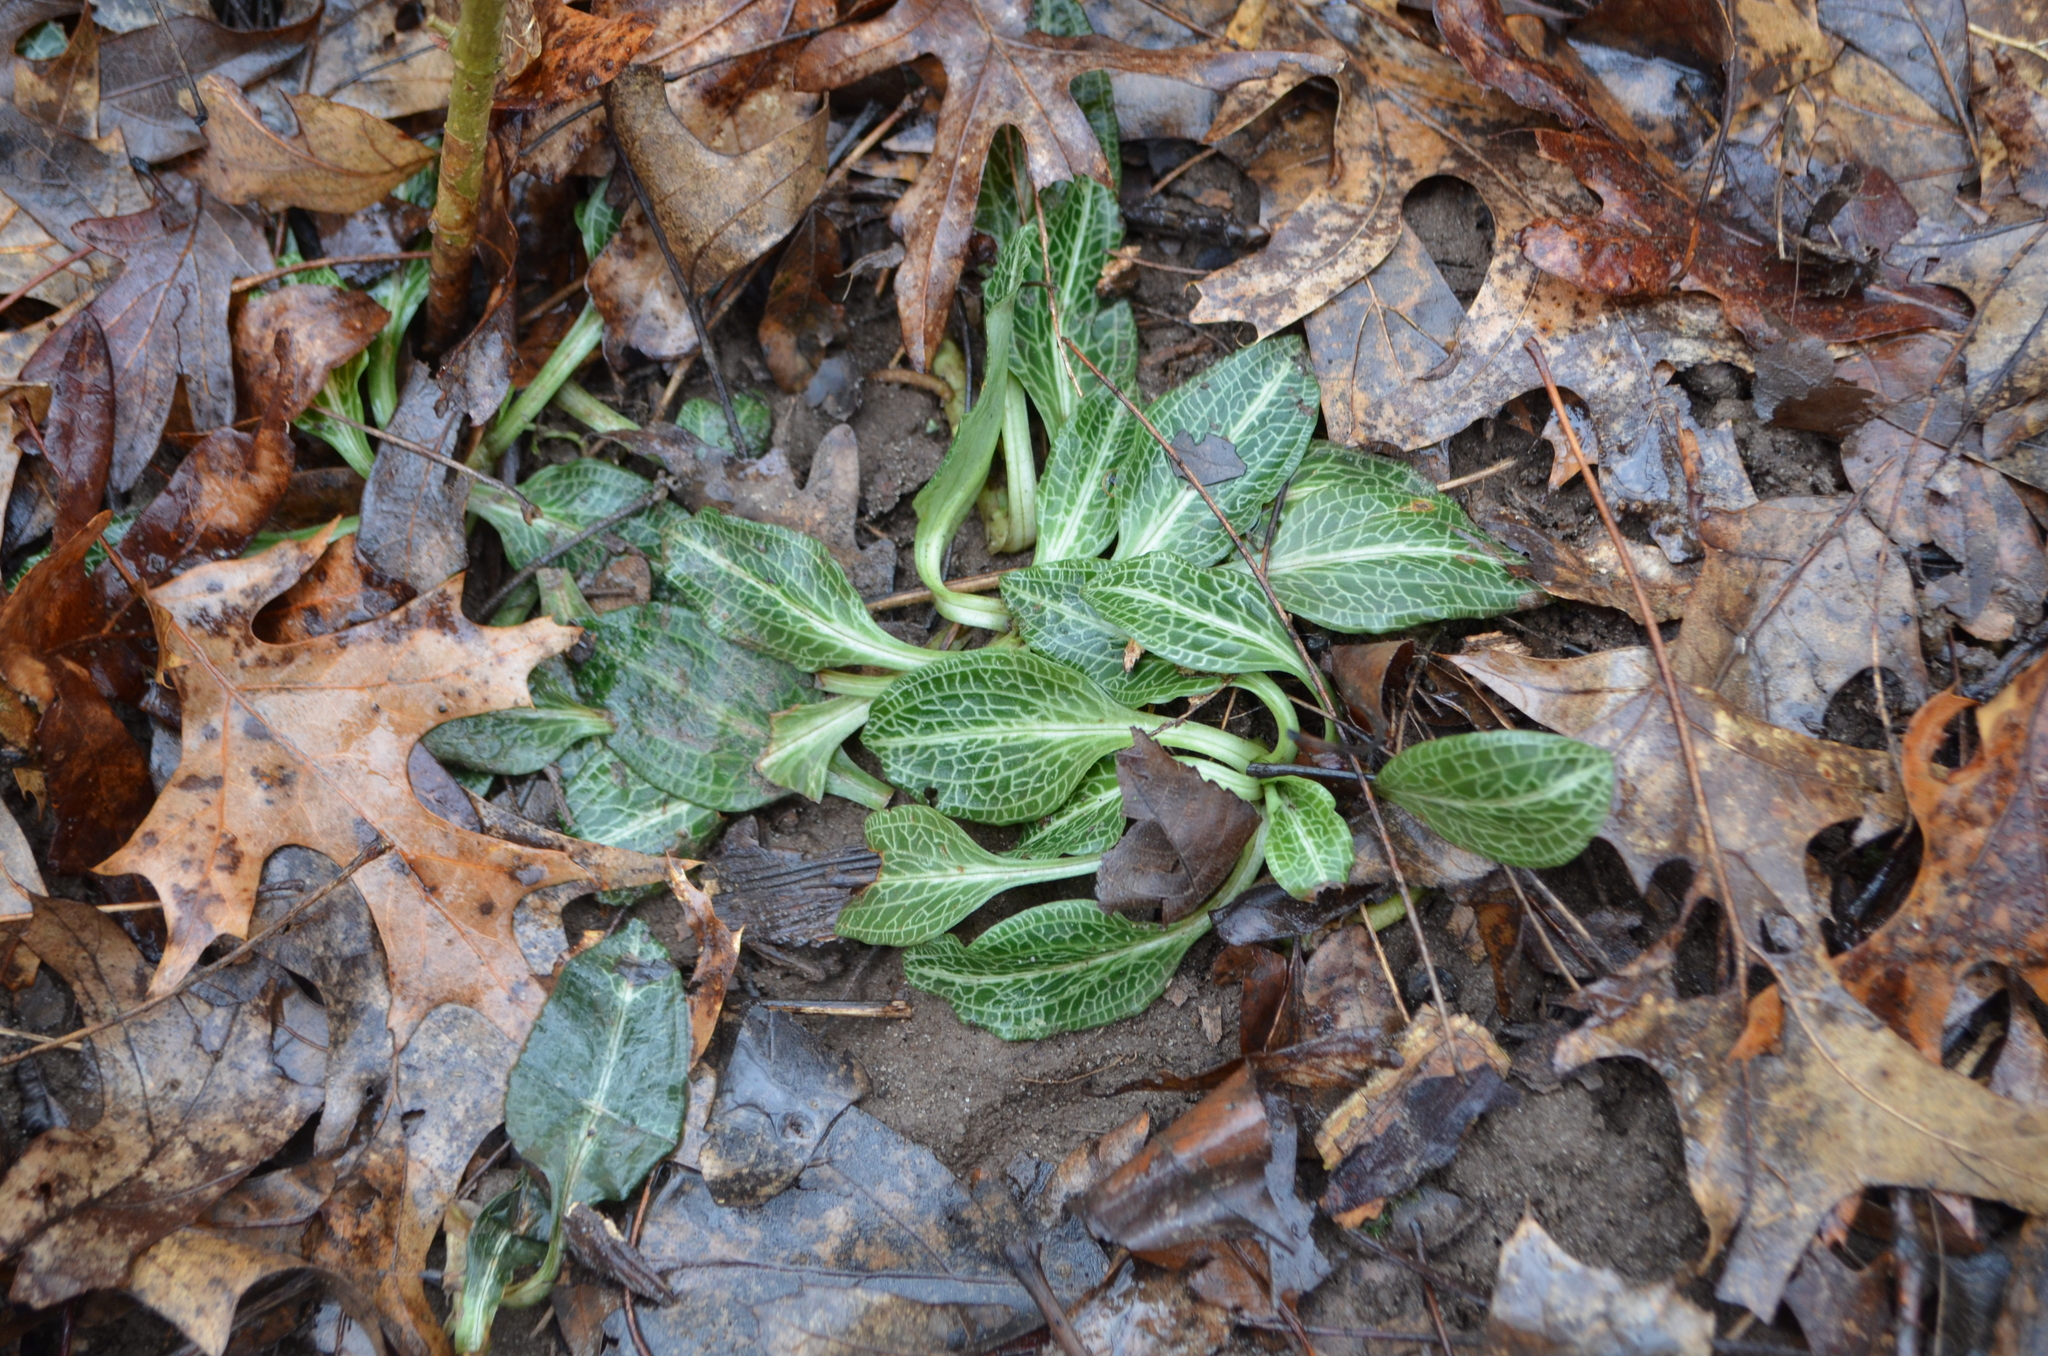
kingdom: Plantae
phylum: Tracheophyta
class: Liliopsida
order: Asparagales
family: Orchidaceae
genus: Goodyera
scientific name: Goodyera pubescens
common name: Downy rattlesnake-plantain
